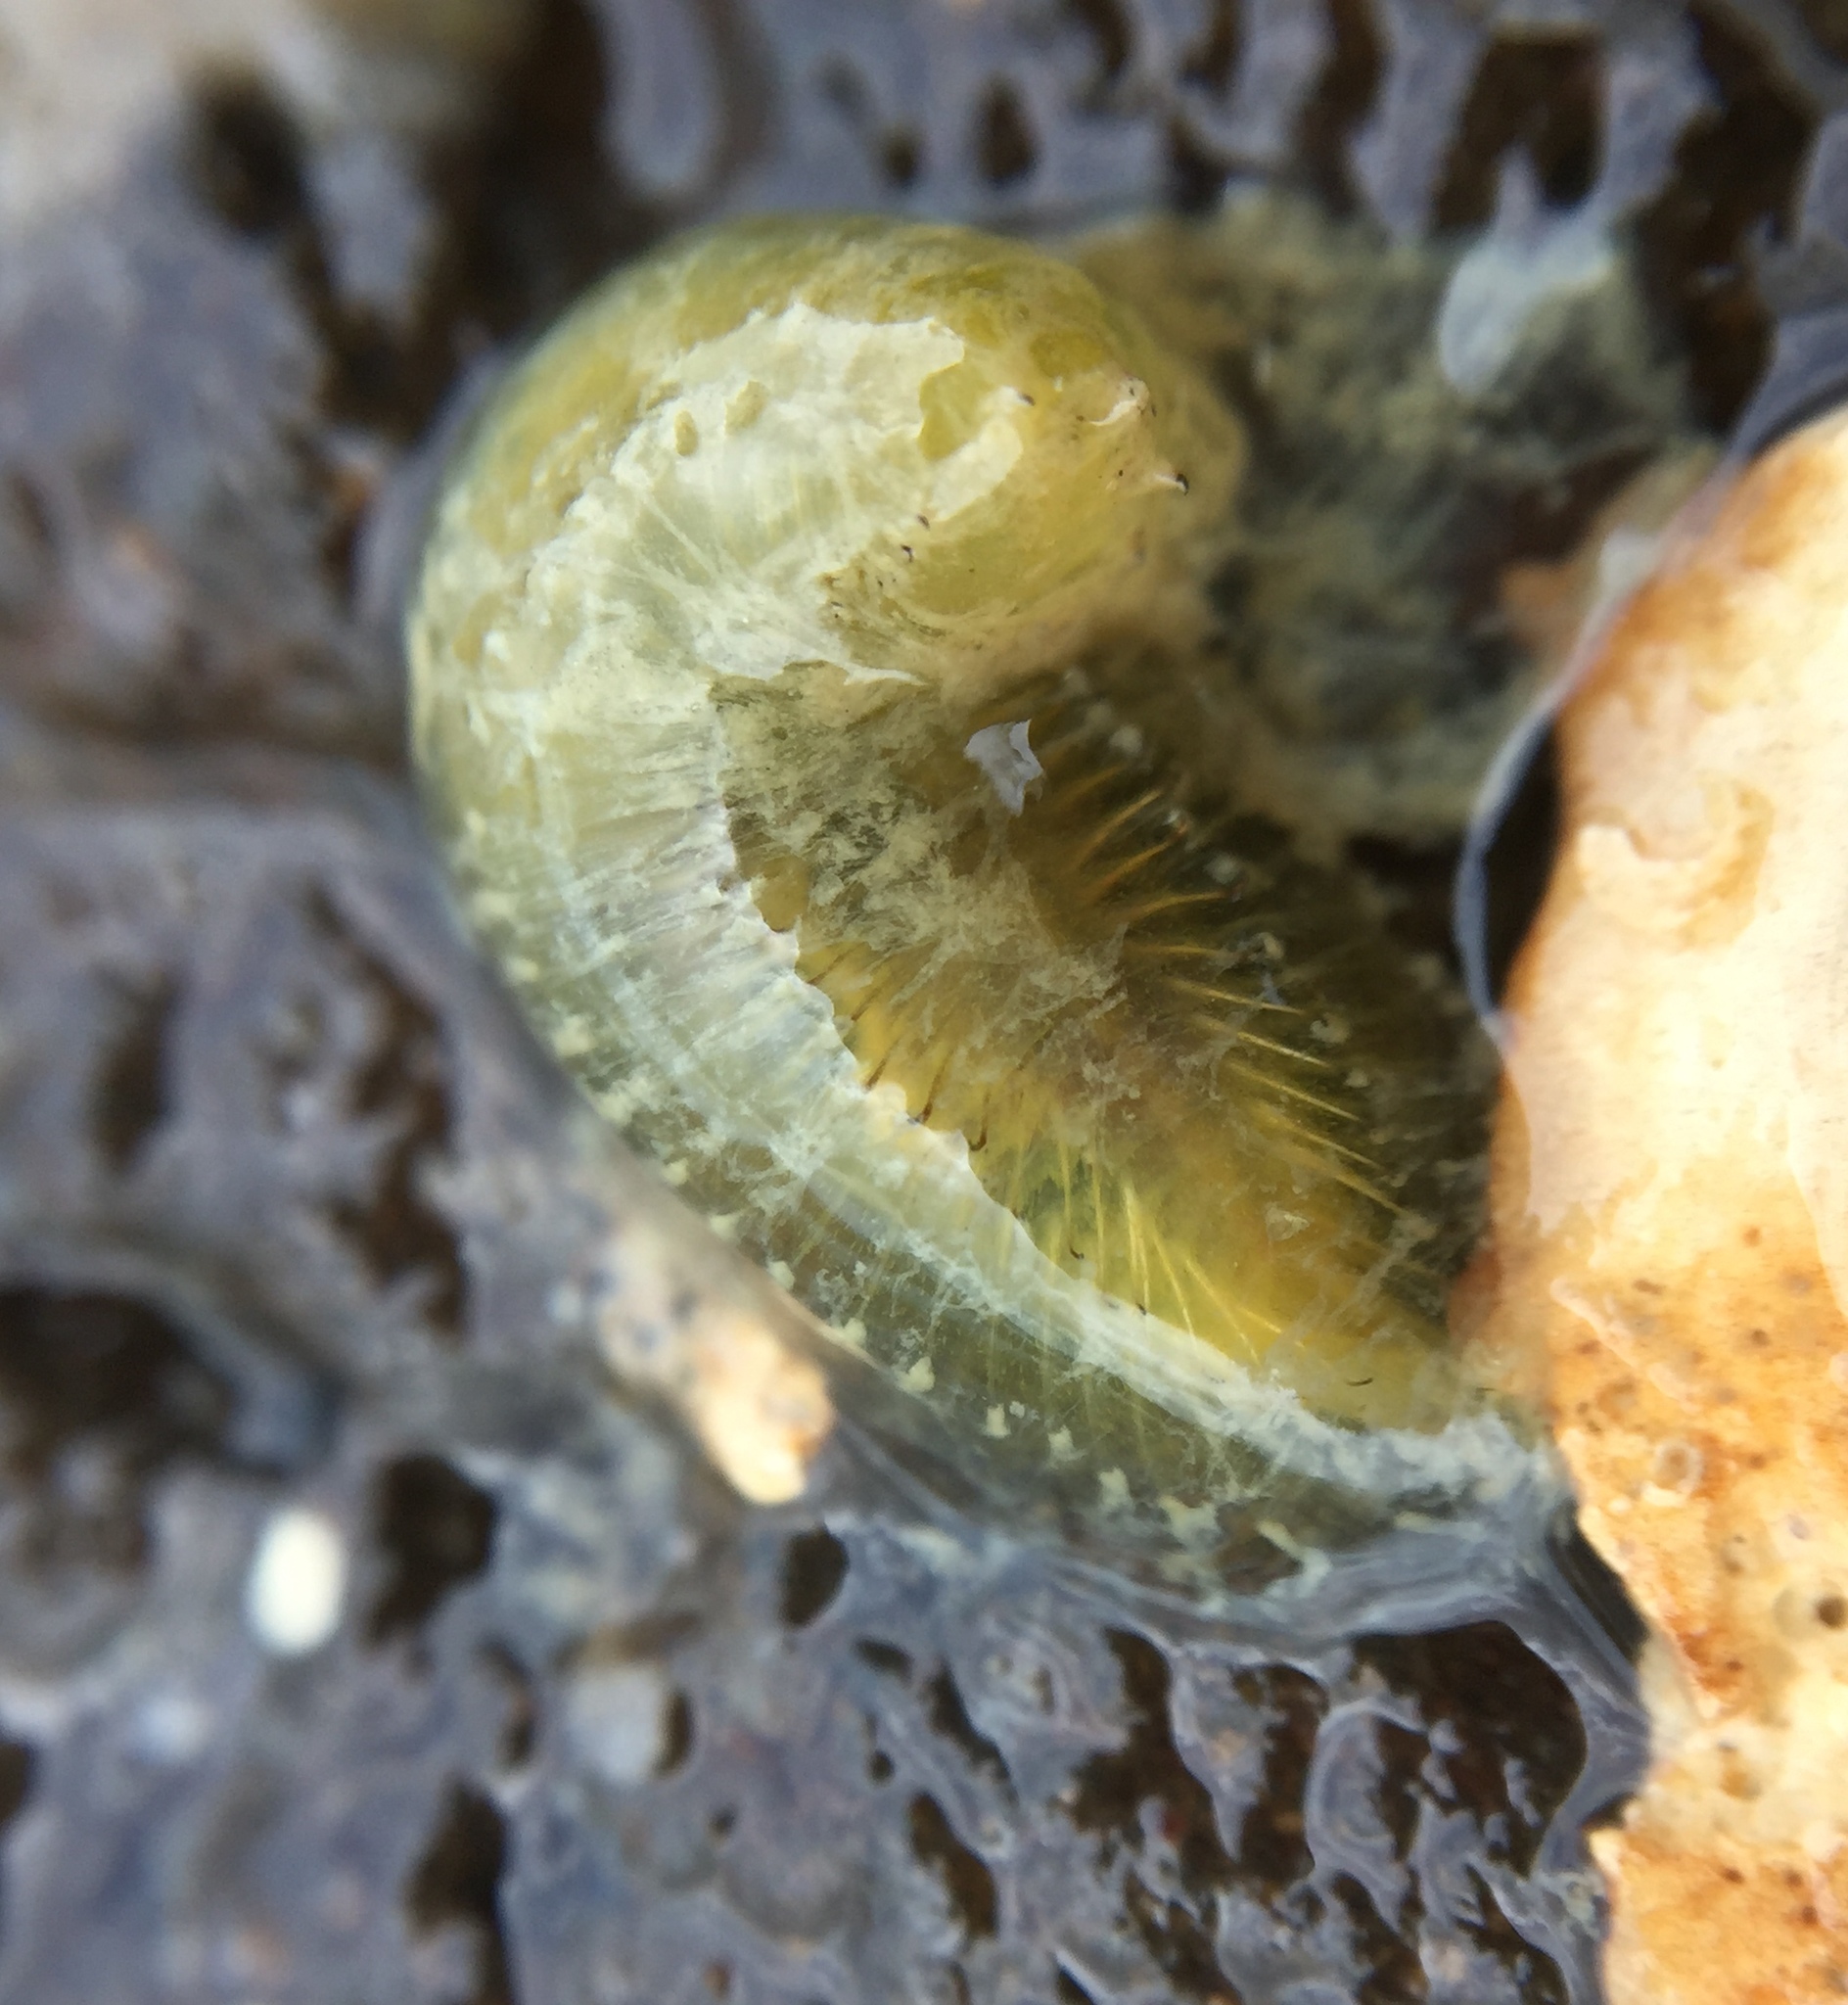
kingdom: Animalia
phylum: Annelida
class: Polychaeta
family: Flabelligeridae
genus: Flabelligera
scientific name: Flabelligera bicolor
